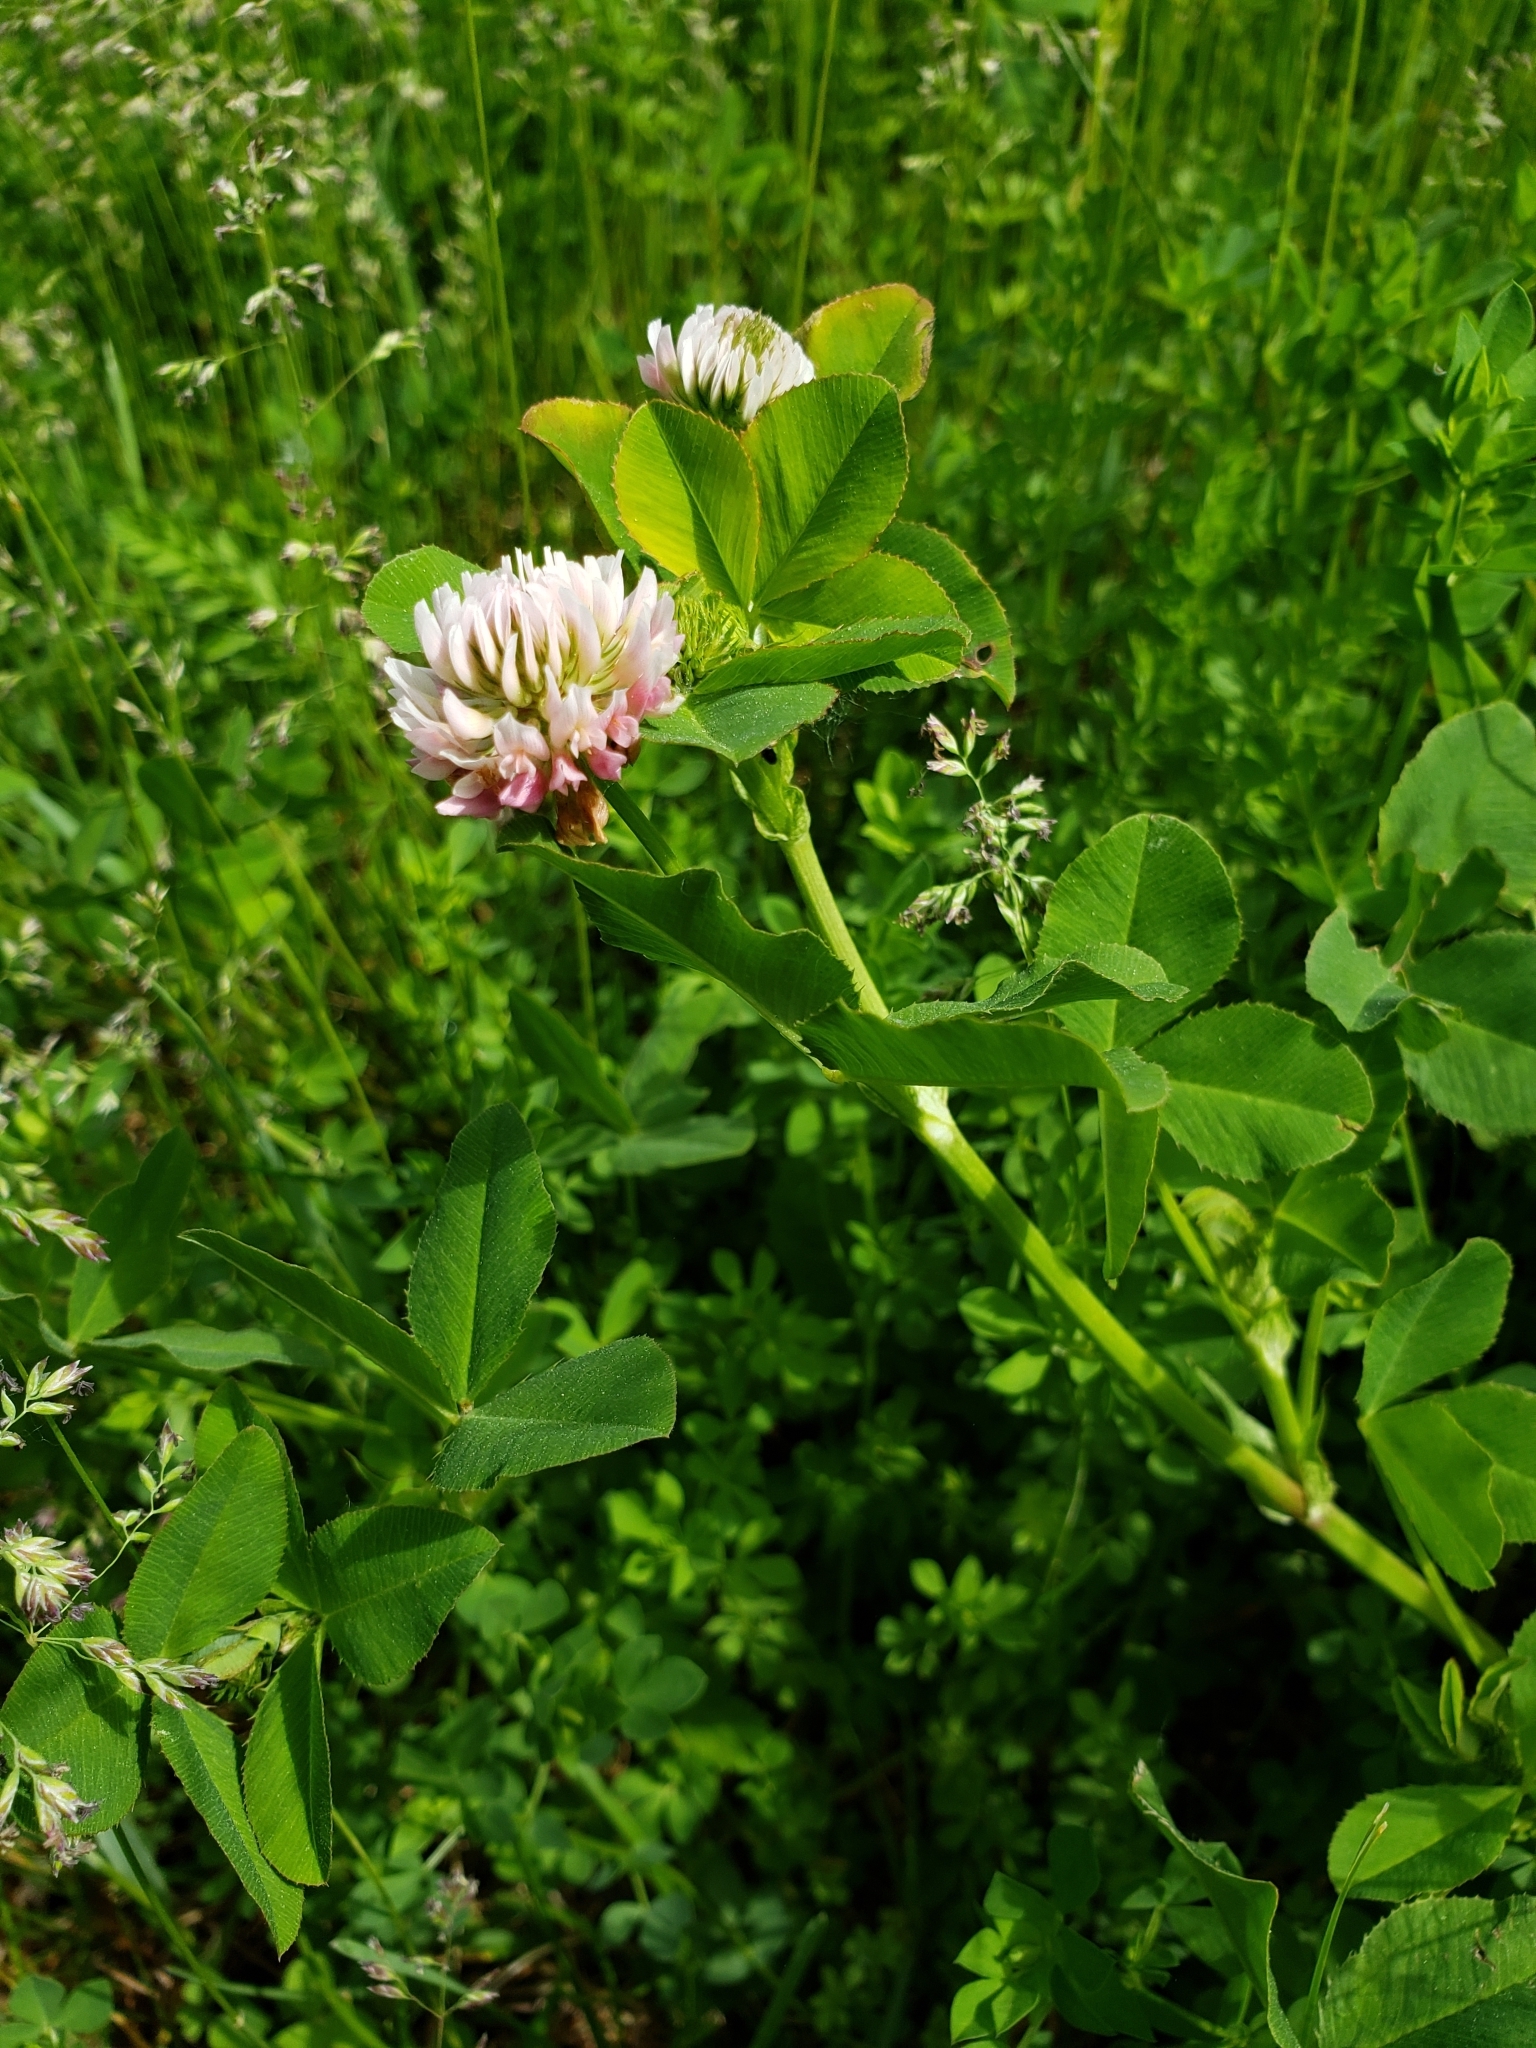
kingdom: Plantae
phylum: Tracheophyta
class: Magnoliopsida
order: Fabales
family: Fabaceae
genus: Trifolium
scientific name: Trifolium hybridum
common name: Alsike clover
